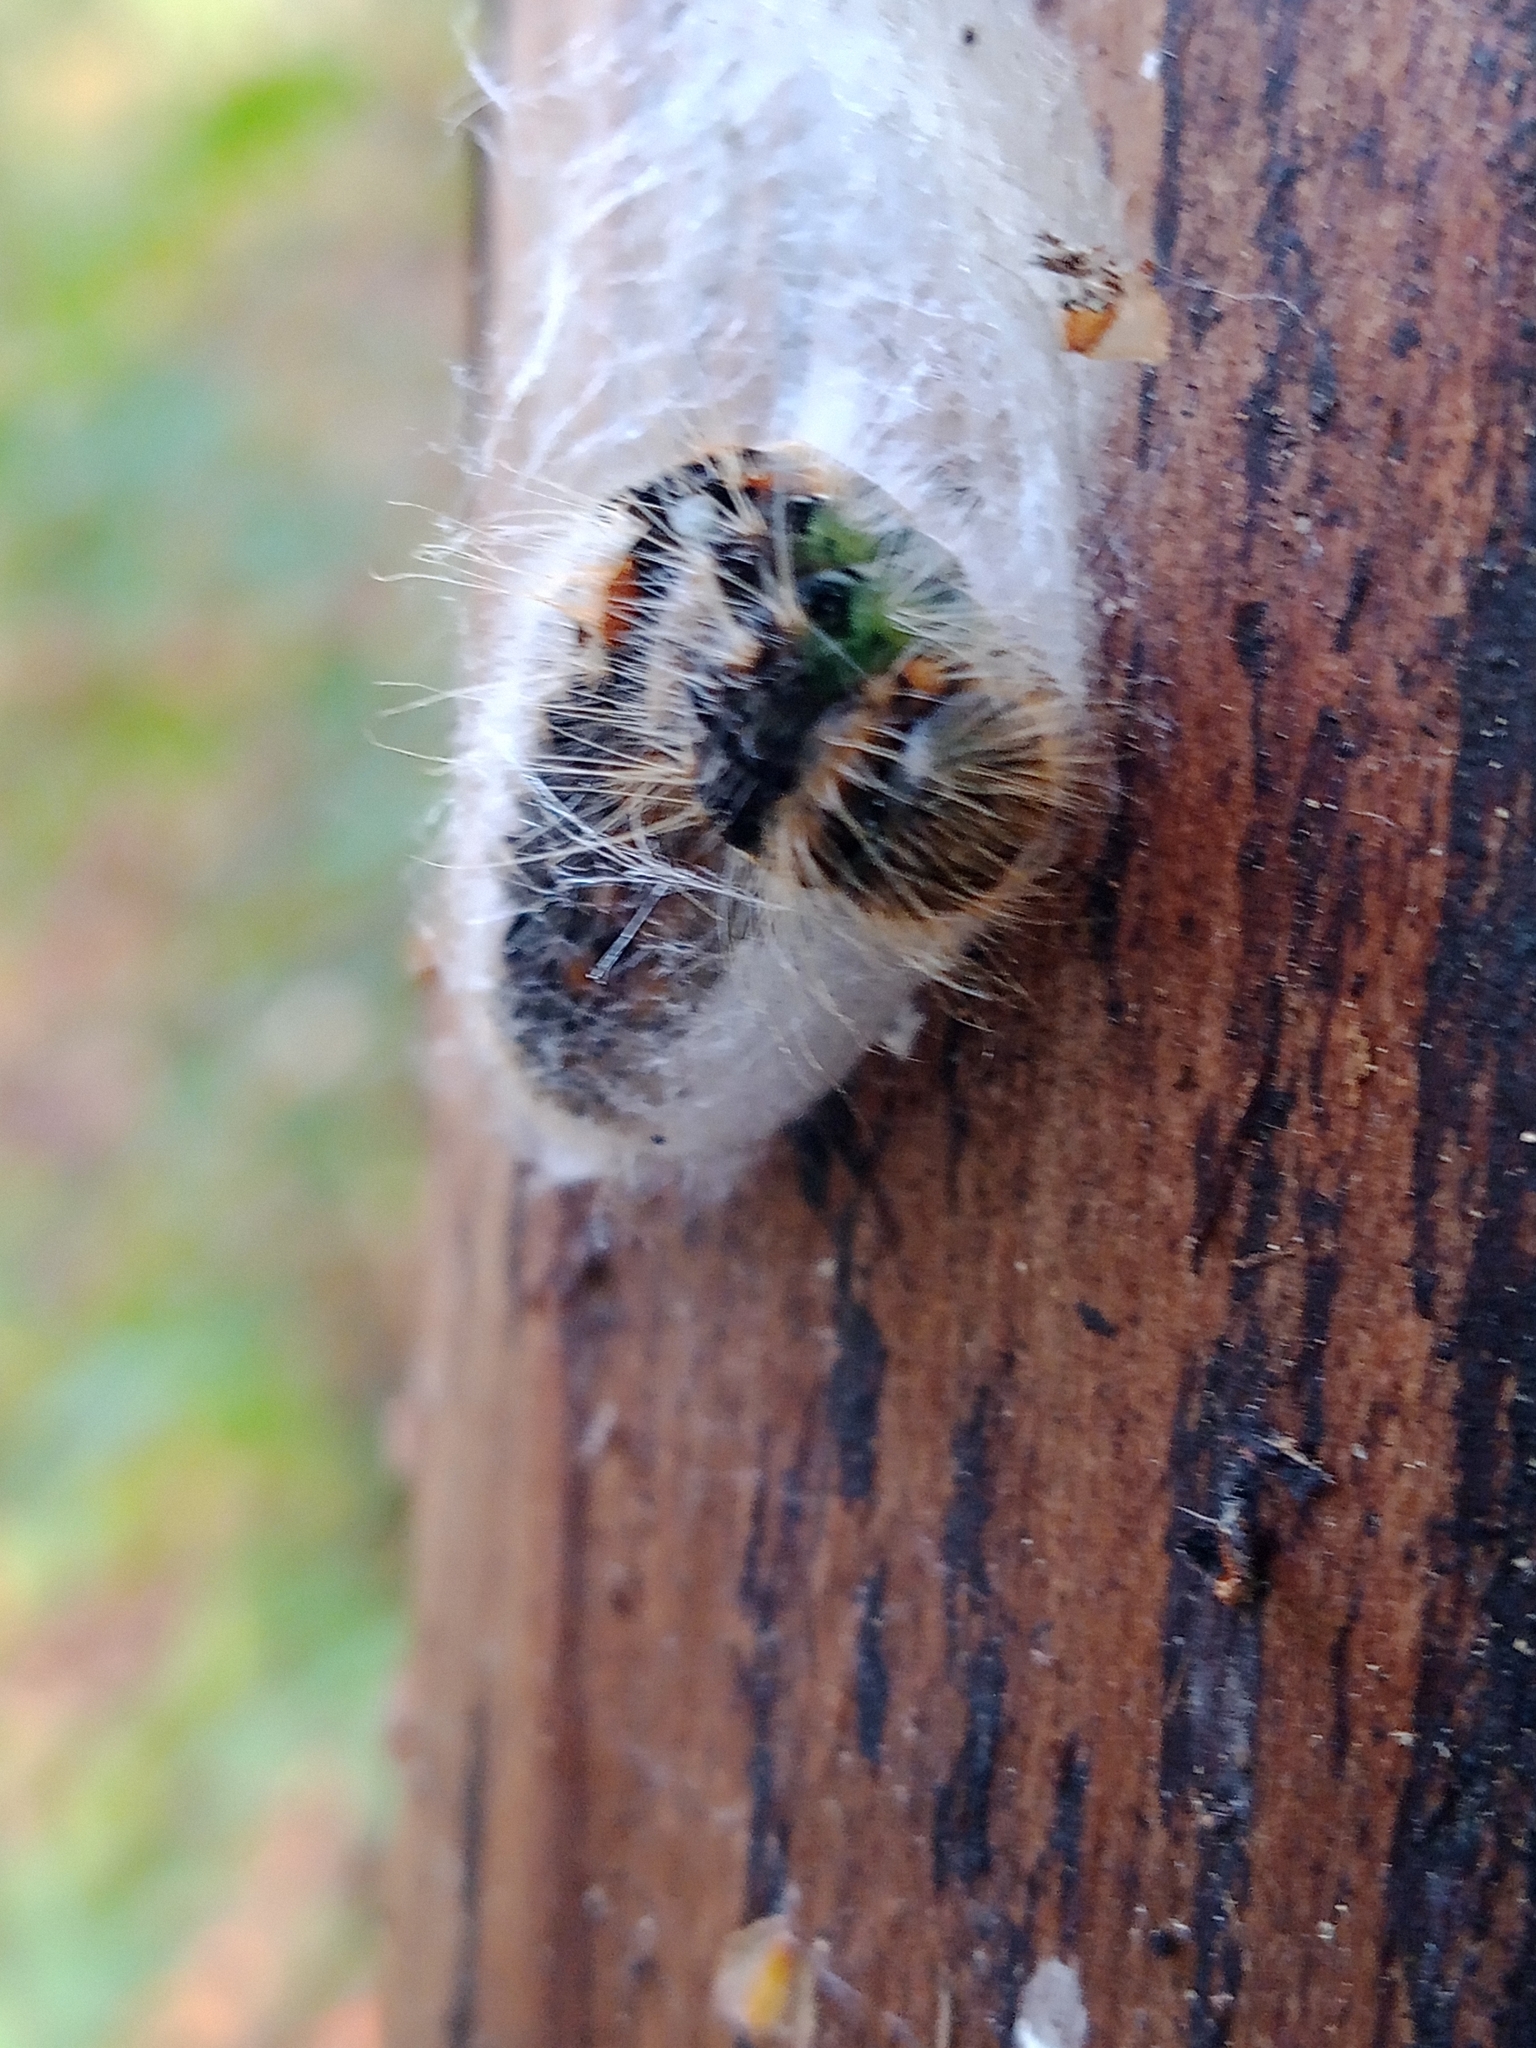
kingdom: Animalia
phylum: Arthropoda
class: Insecta
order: Lepidoptera
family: Notodontidae
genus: Clostera
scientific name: Clostera anachoreta
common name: Scarce chocolate-tip
